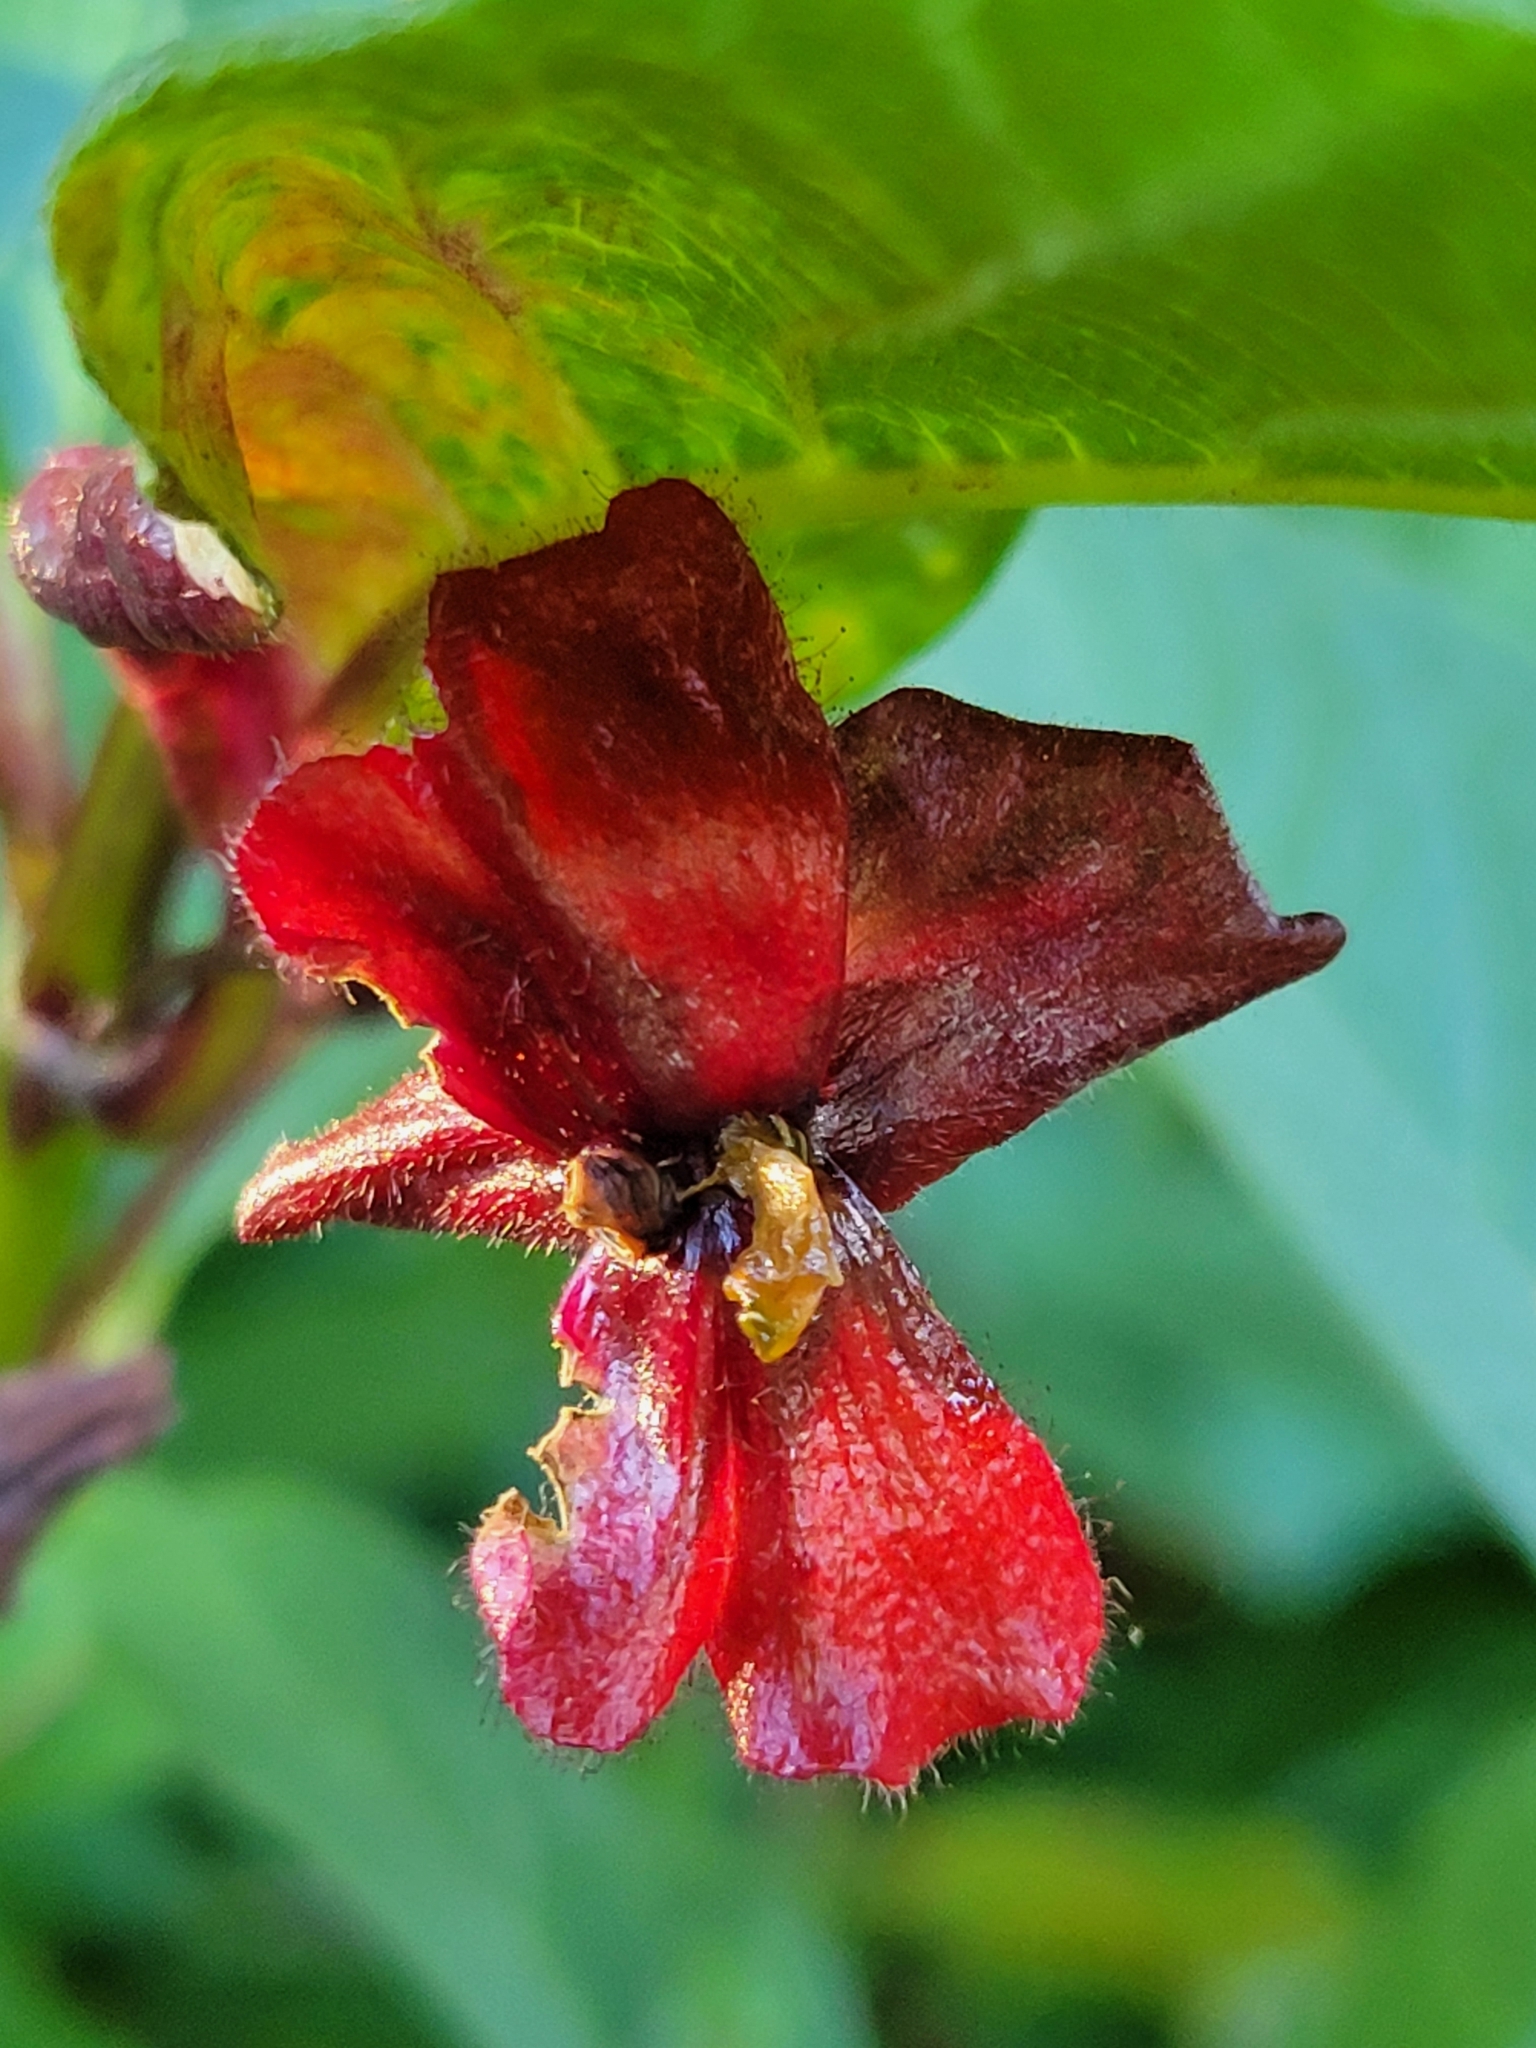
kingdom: Plantae
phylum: Tracheophyta
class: Magnoliopsida
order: Dipsacales
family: Caprifoliaceae
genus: Lonicera
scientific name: Lonicera involucrata
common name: Californian honeysuckle
